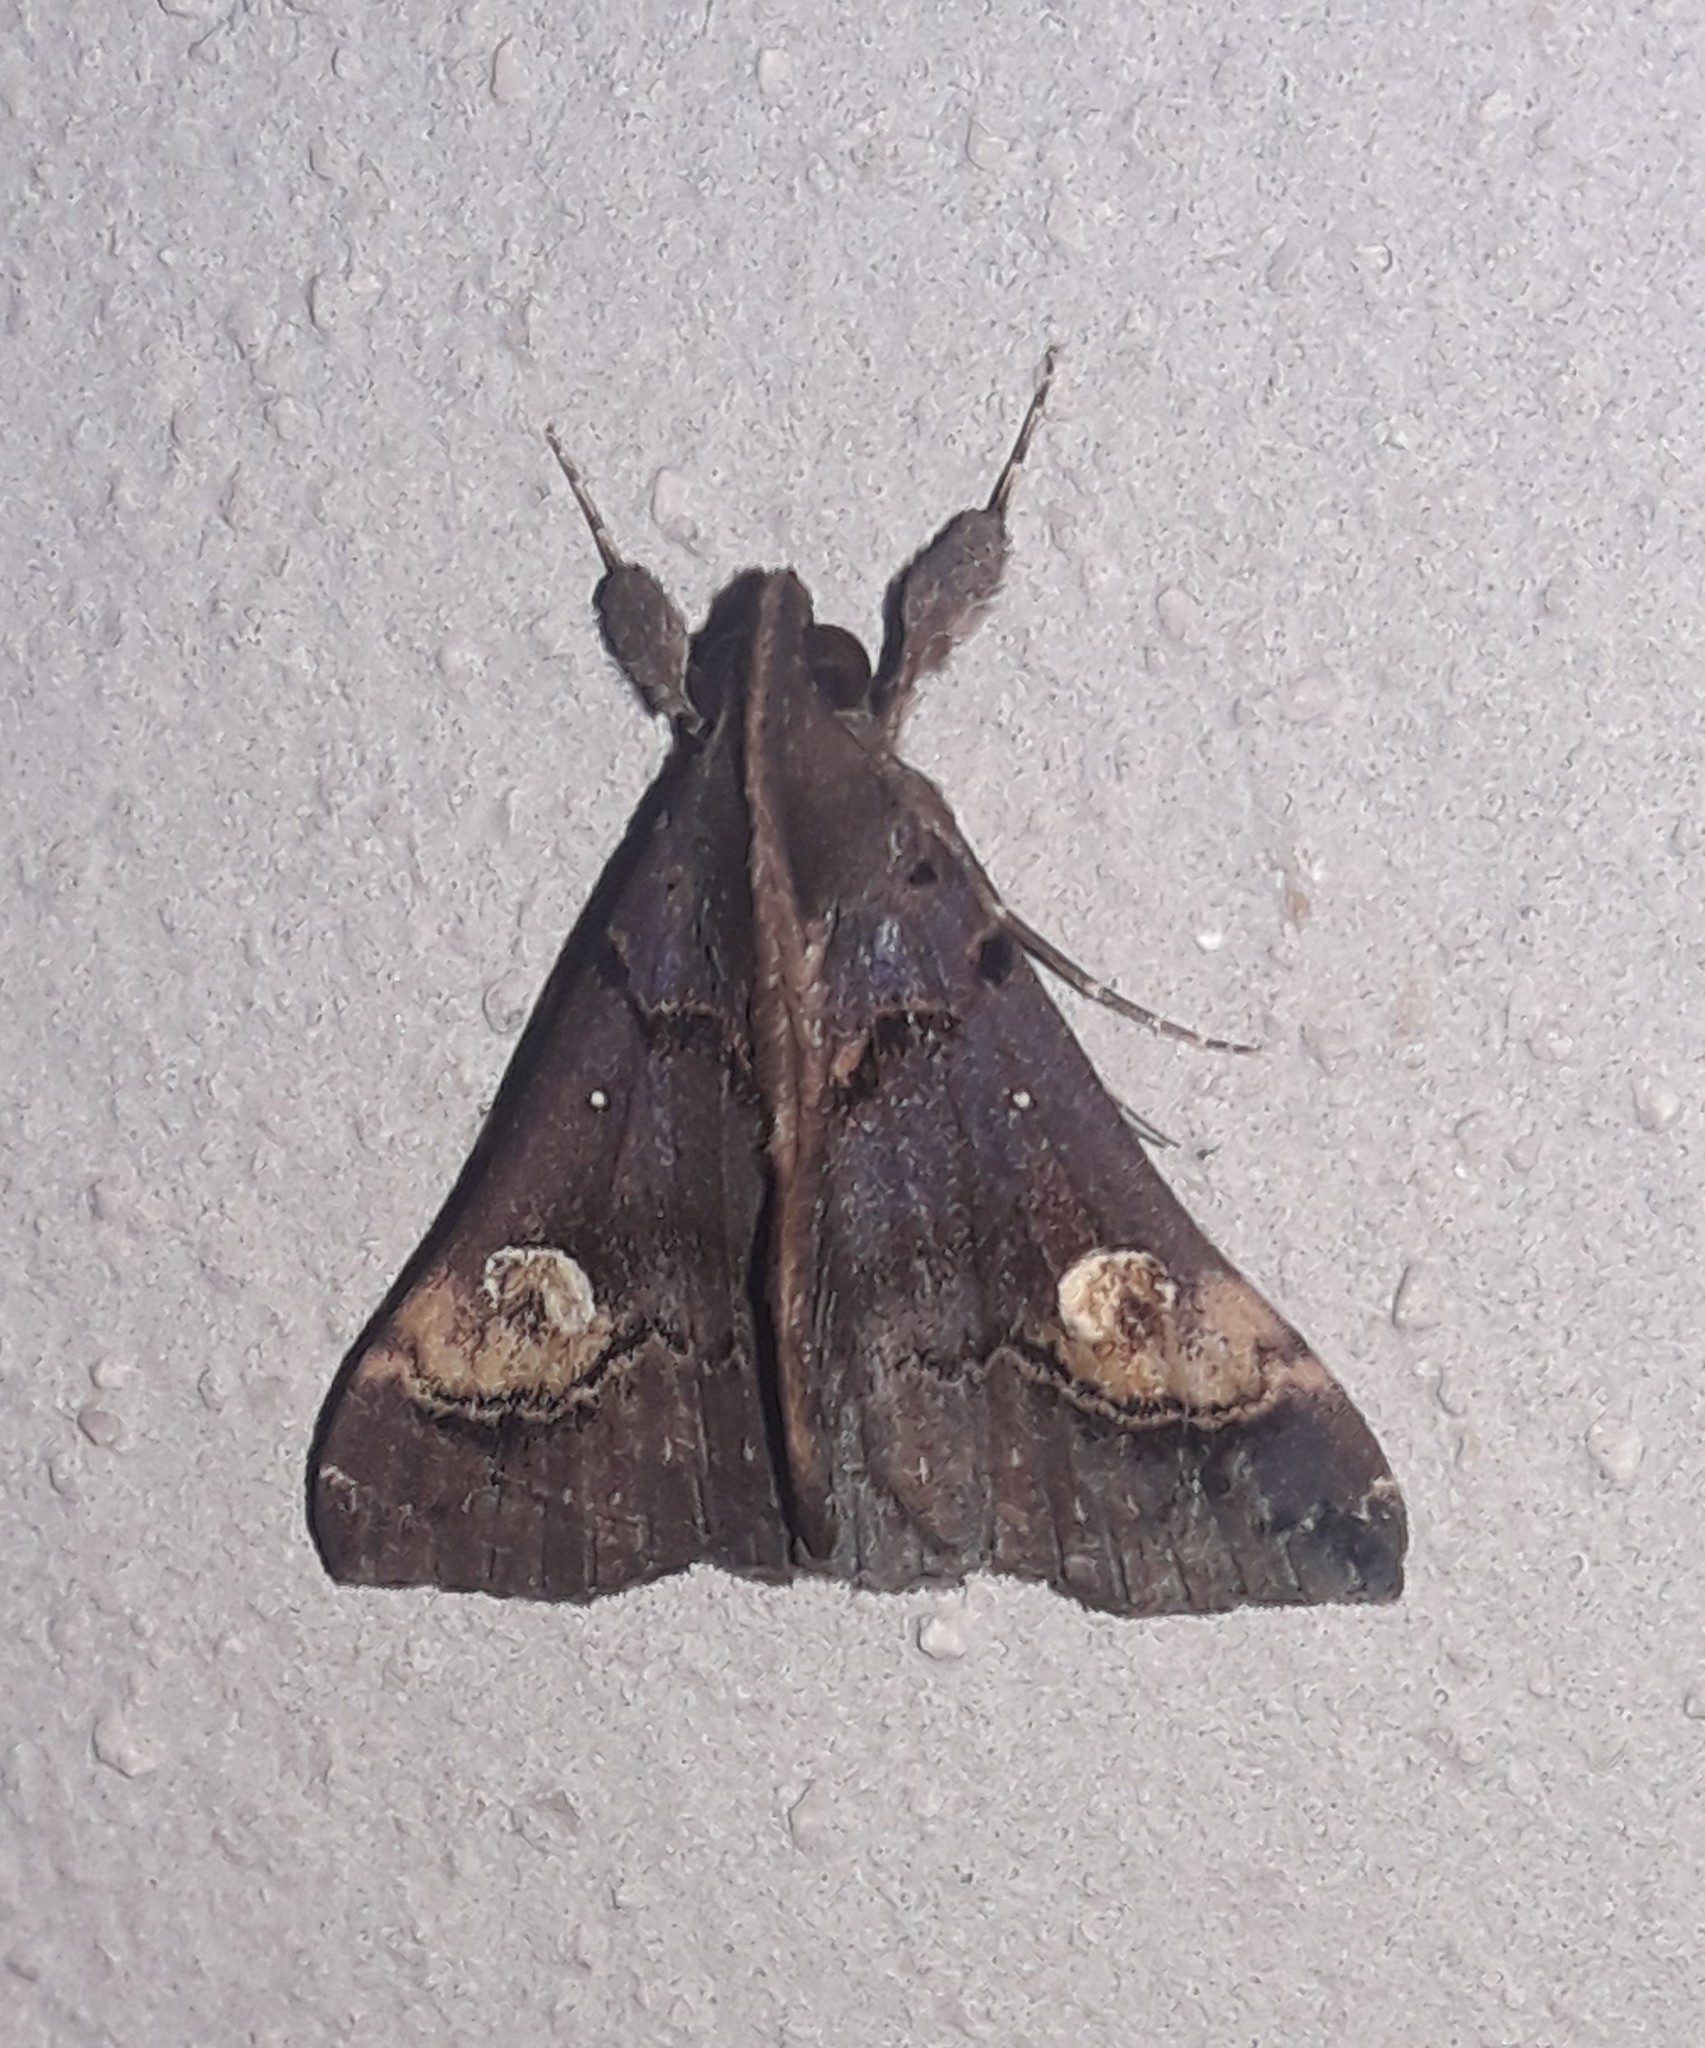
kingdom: Animalia
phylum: Arthropoda
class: Insecta
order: Lepidoptera
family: Erebidae
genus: Scopifera
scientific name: Scopifera lycagusalis
